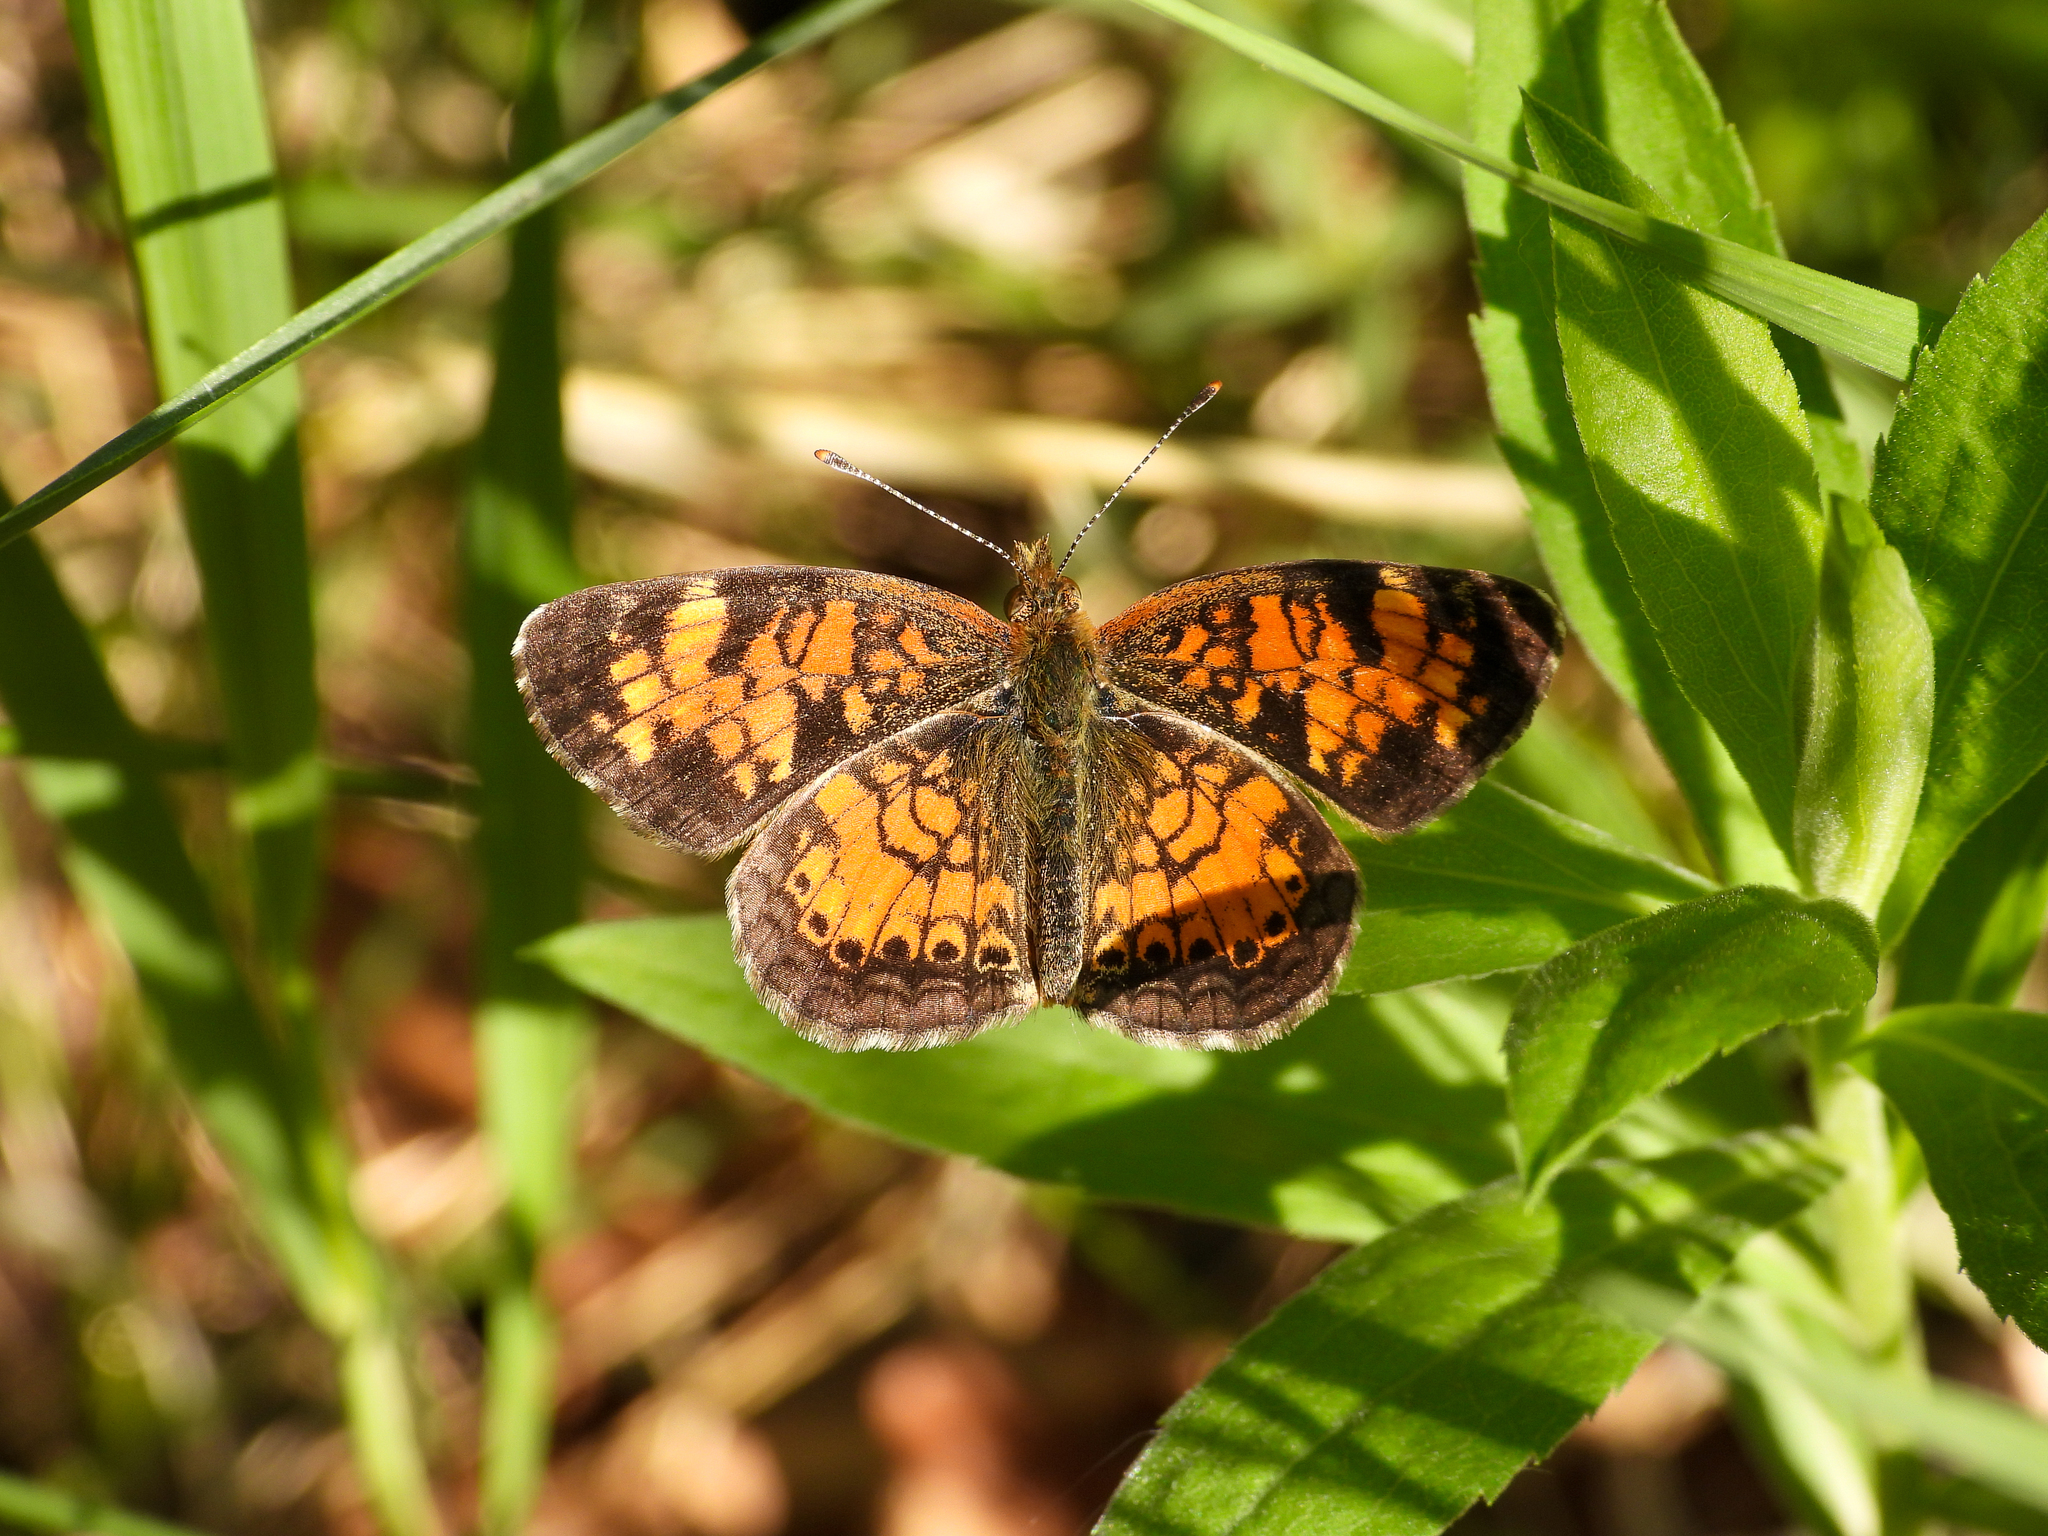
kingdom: Animalia
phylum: Arthropoda
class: Insecta
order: Lepidoptera
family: Nymphalidae
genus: Phyciodes
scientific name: Phyciodes tharos
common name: Pearl crescent
